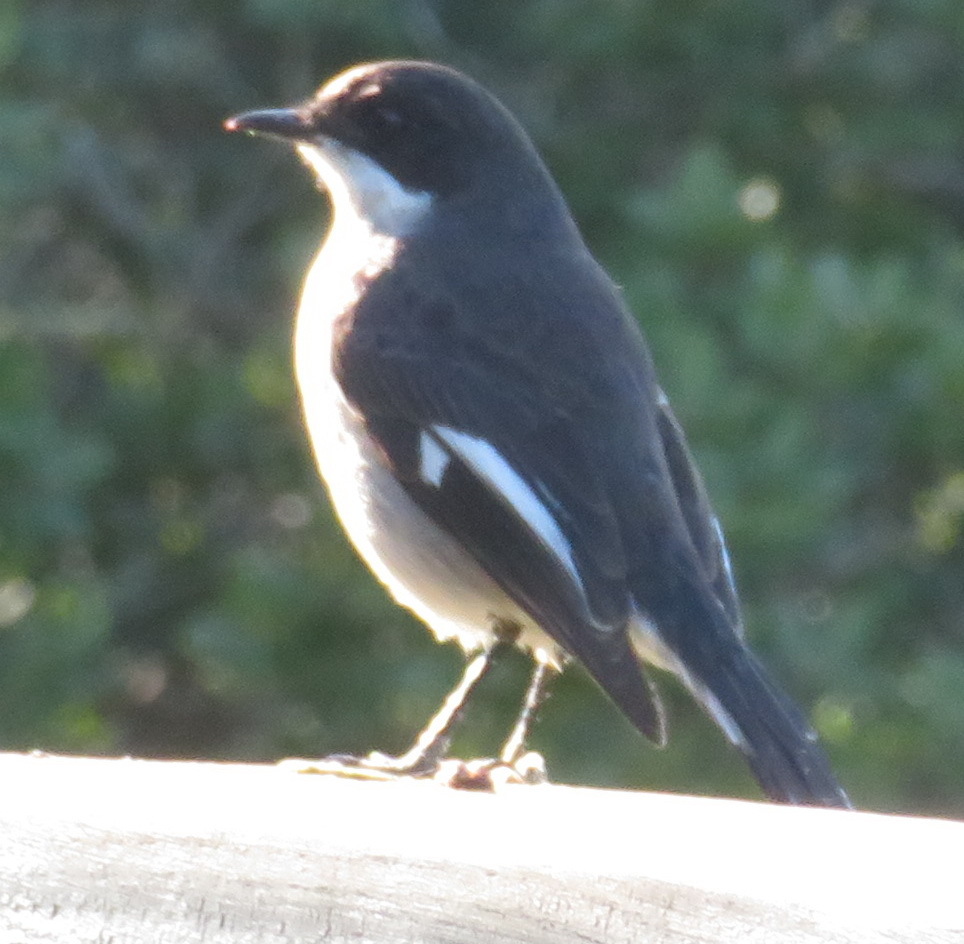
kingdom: Animalia
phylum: Chordata
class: Aves
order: Passeriformes
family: Muscicapidae
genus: Sigelus
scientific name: Sigelus silens
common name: Fiscal flycatcher
